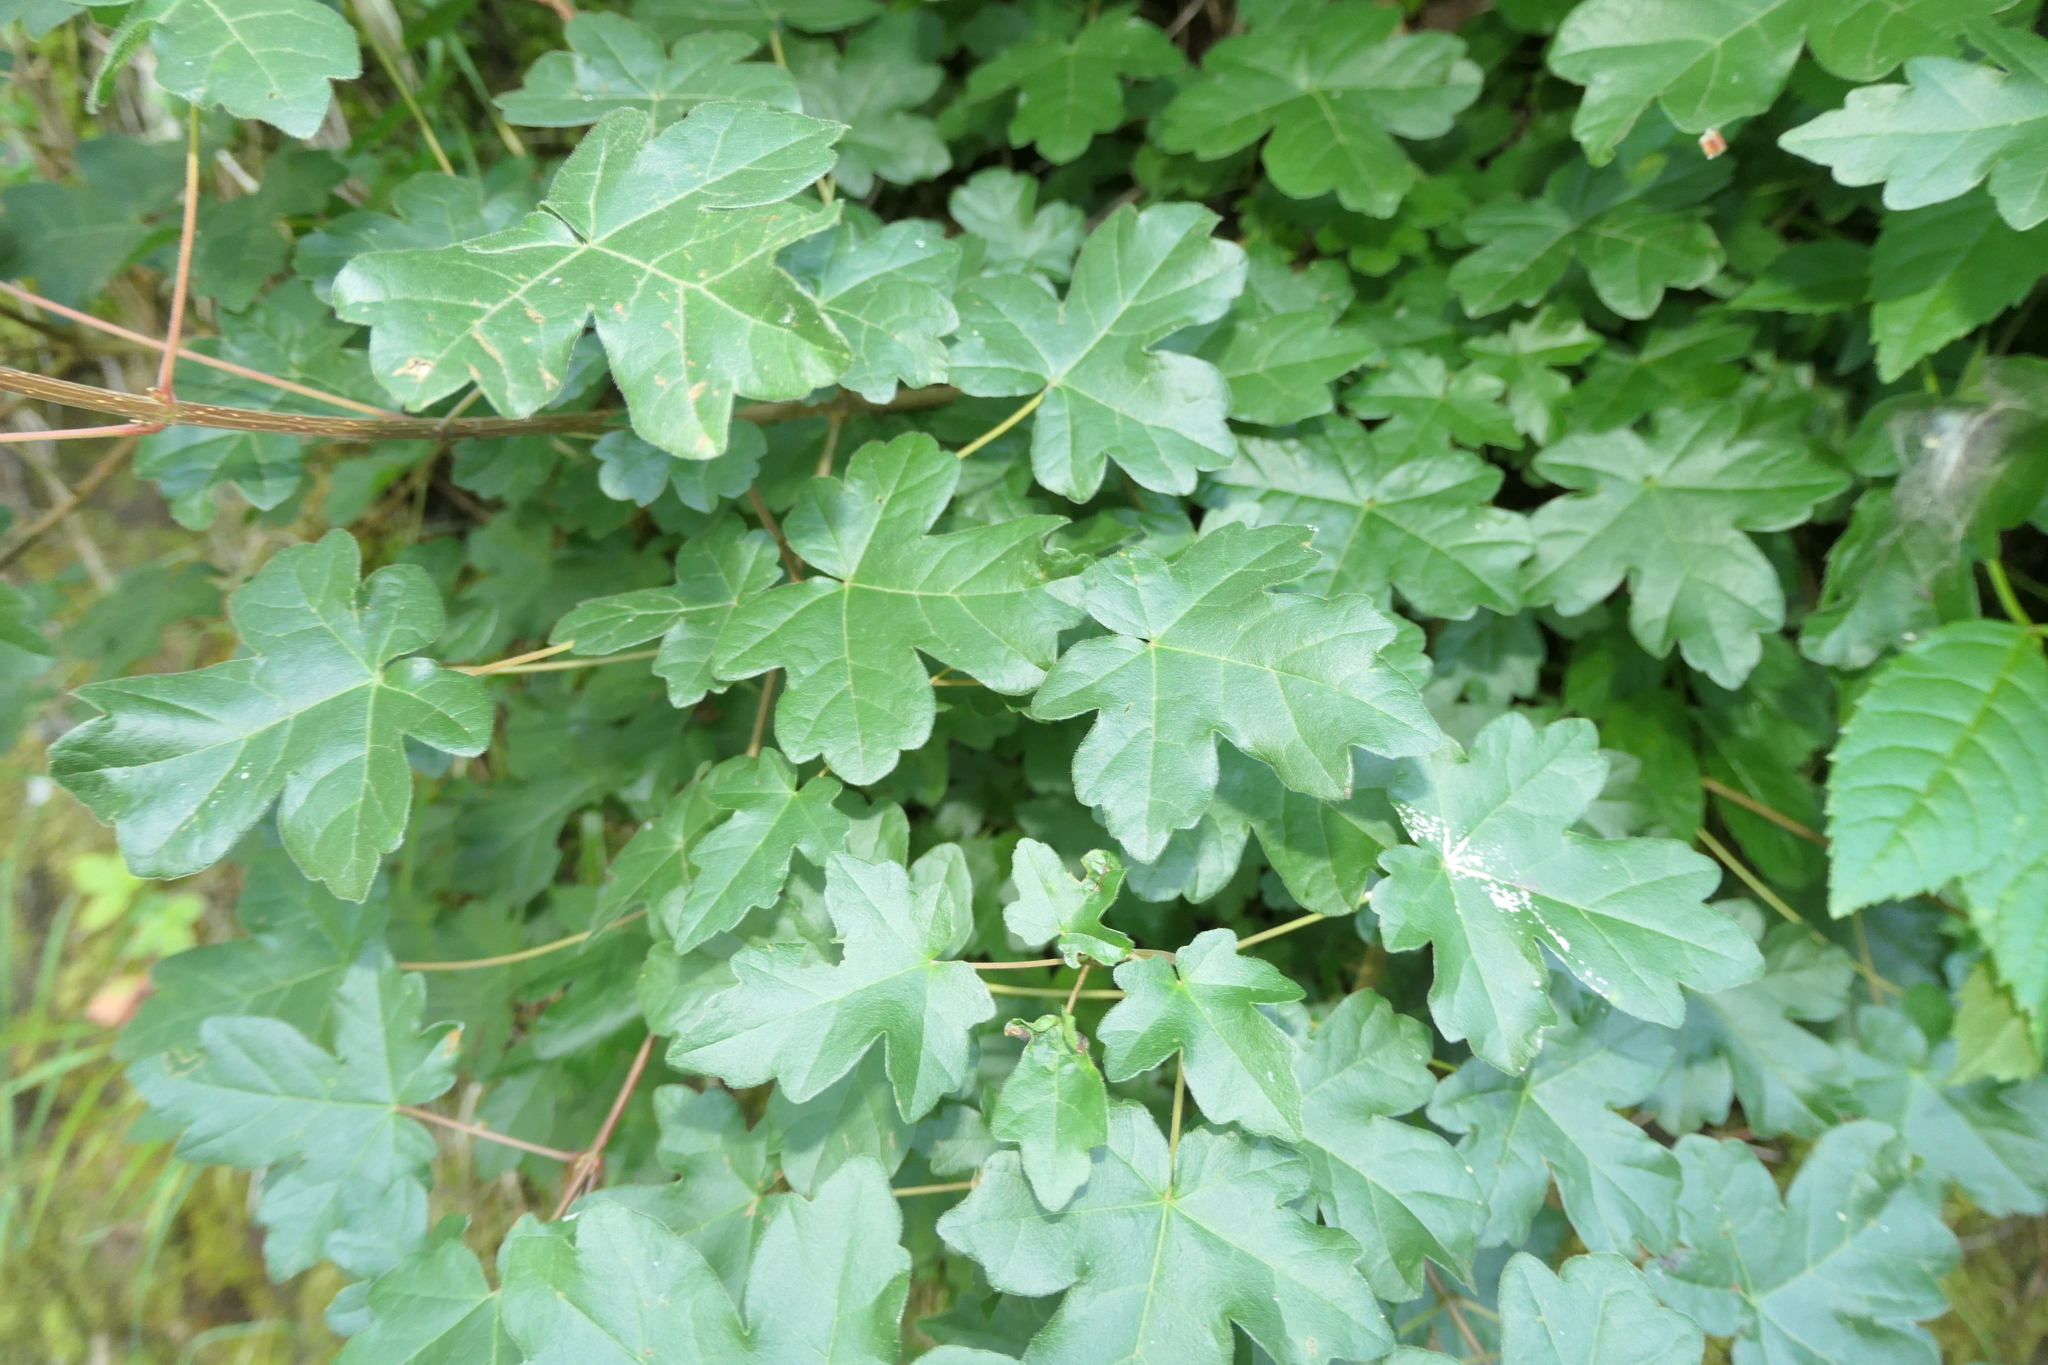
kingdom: Plantae
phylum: Tracheophyta
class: Magnoliopsida
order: Sapindales
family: Sapindaceae
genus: Acer
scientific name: Acer campestre
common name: Field maple
